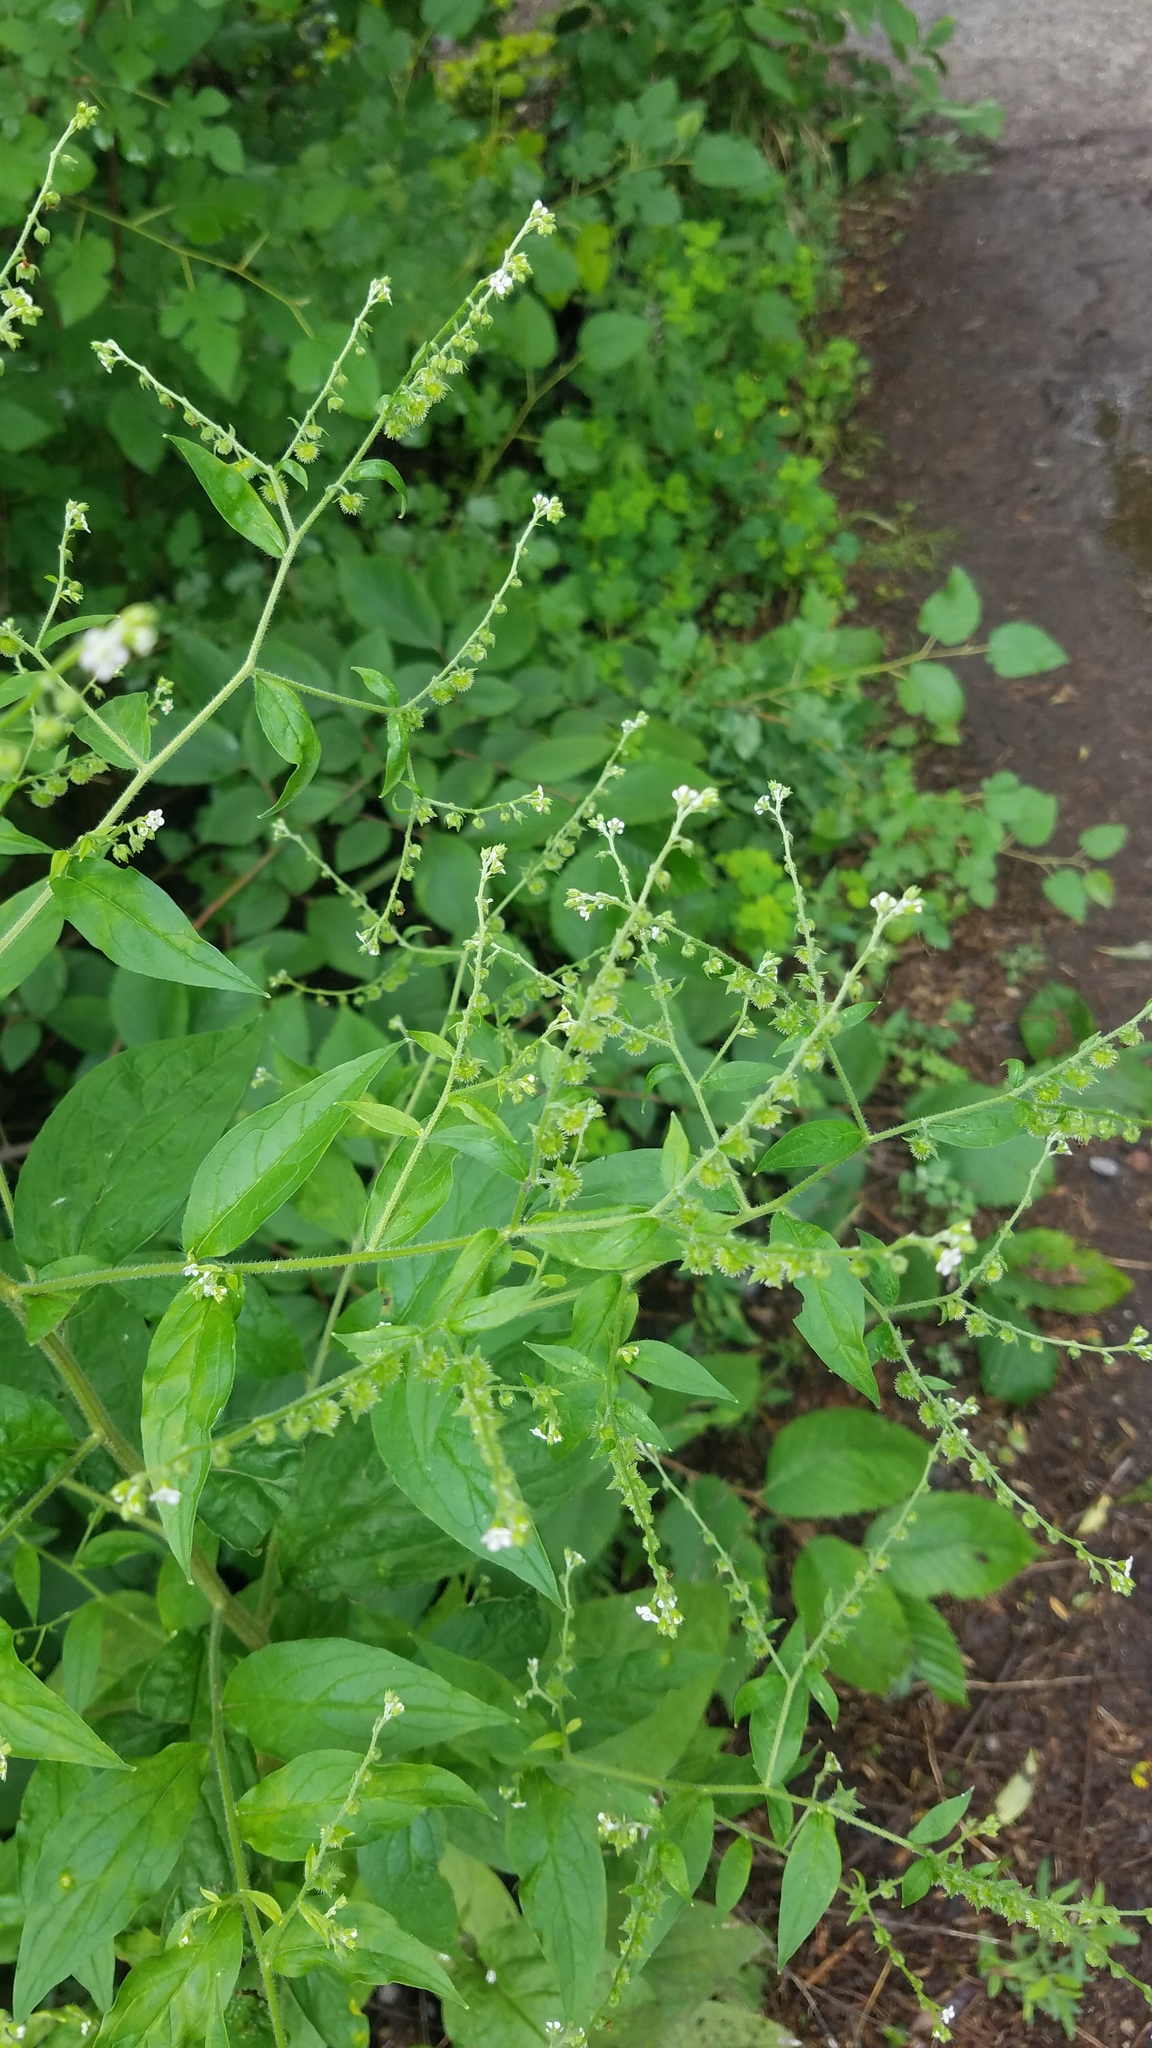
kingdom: Plantae
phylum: Tracheophyta
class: Magnoliopsida
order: Boraginales
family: Boraginaceae
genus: Hackelia
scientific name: Hackelia virginiana
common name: Beggar's-lice
